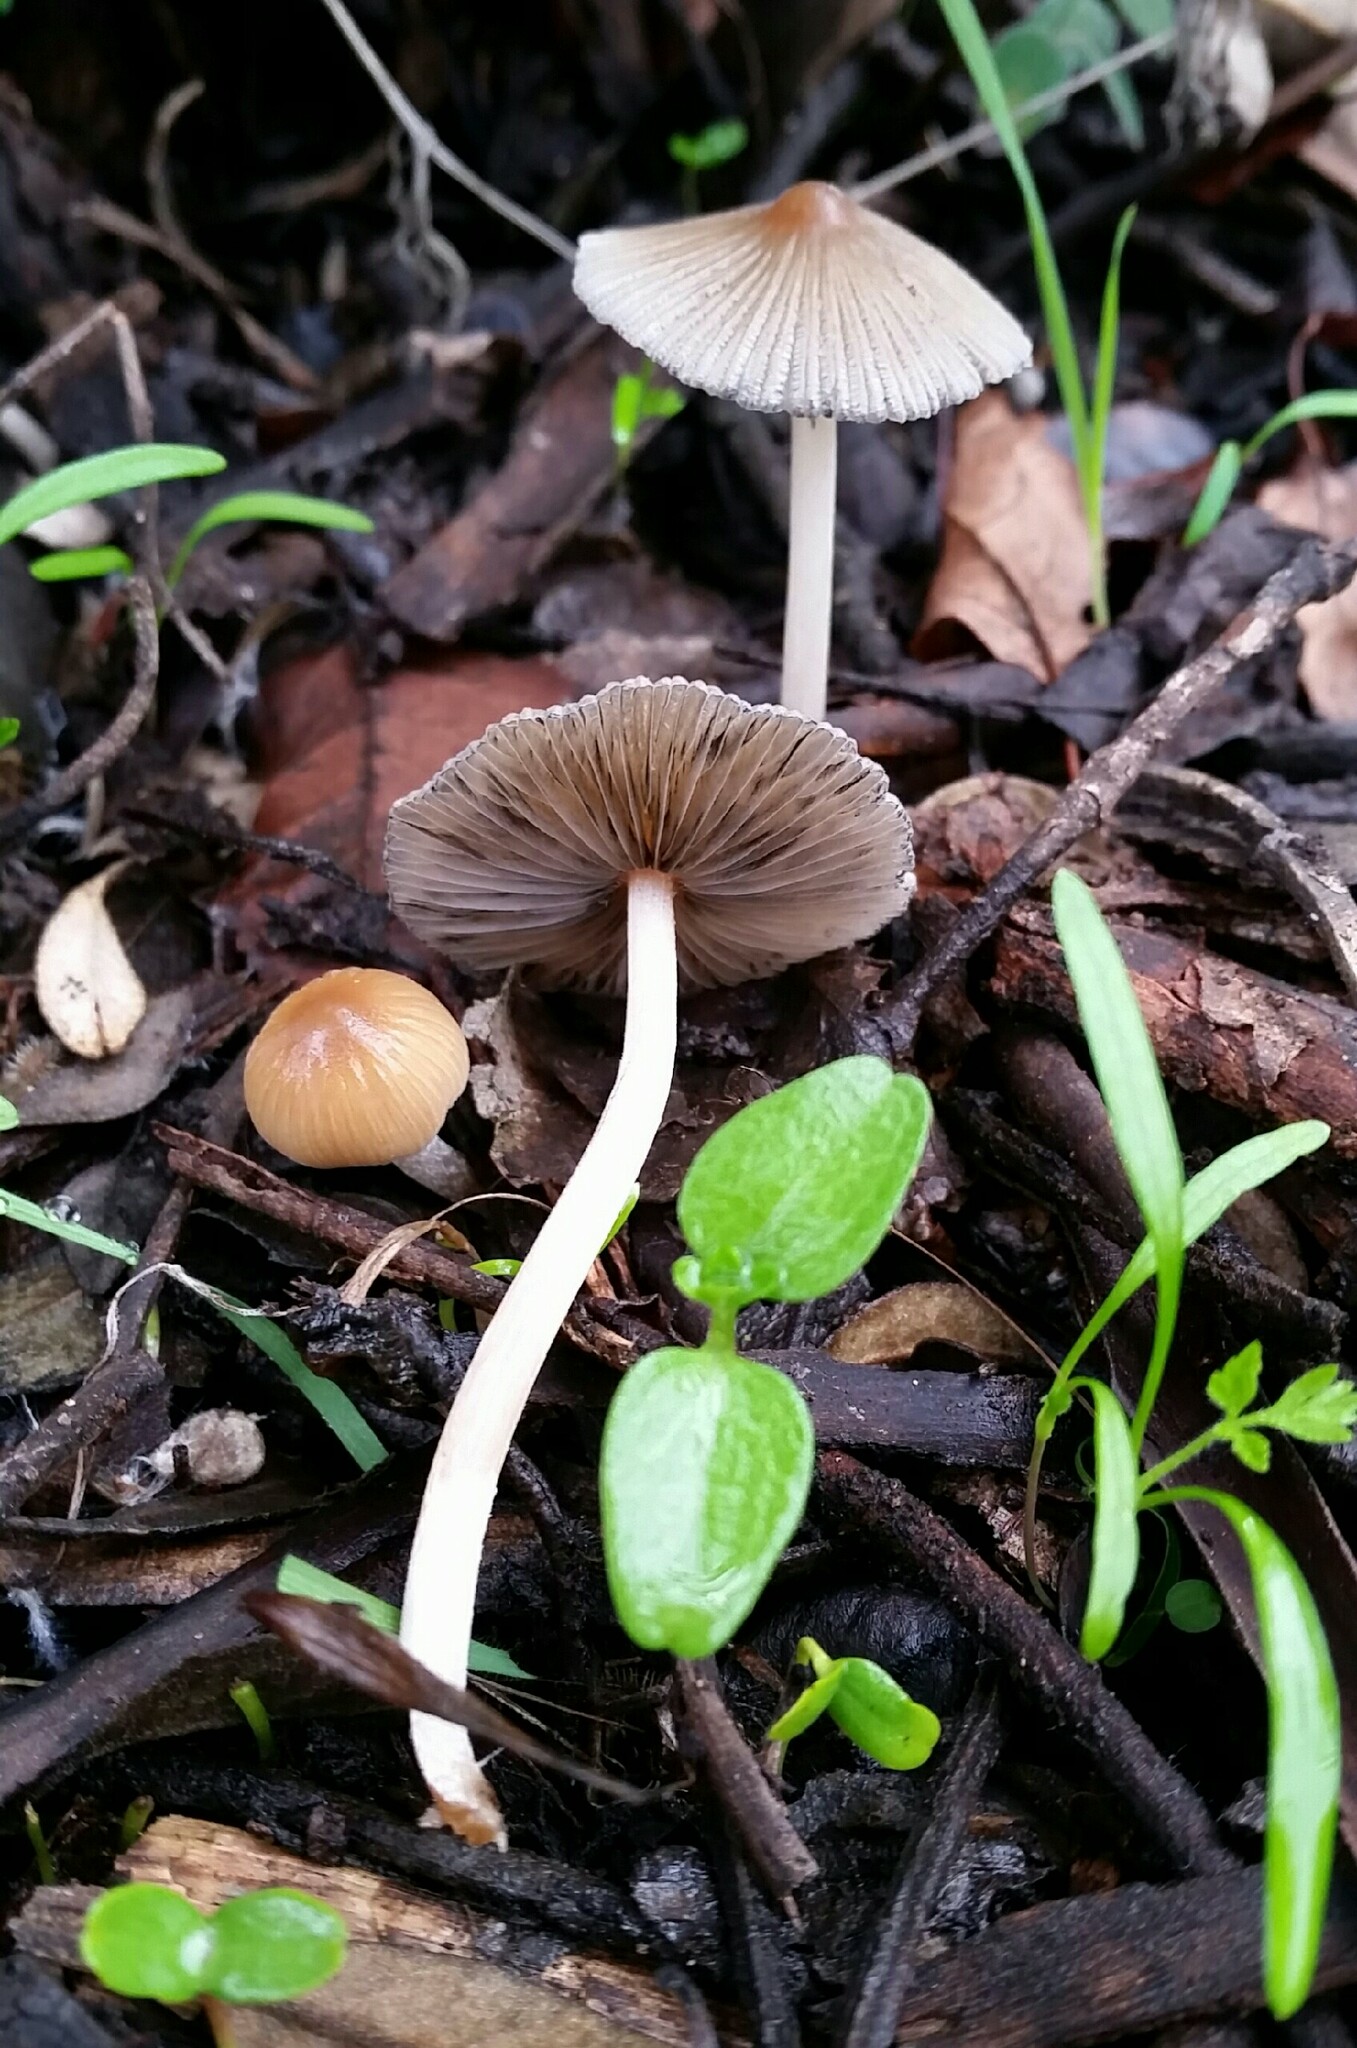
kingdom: Fungi
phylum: Basidiomycota
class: Agaricomycetes
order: Agaricales
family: Psathyrellaceae
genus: Tulosesus
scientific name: Tulosesus impatiens
